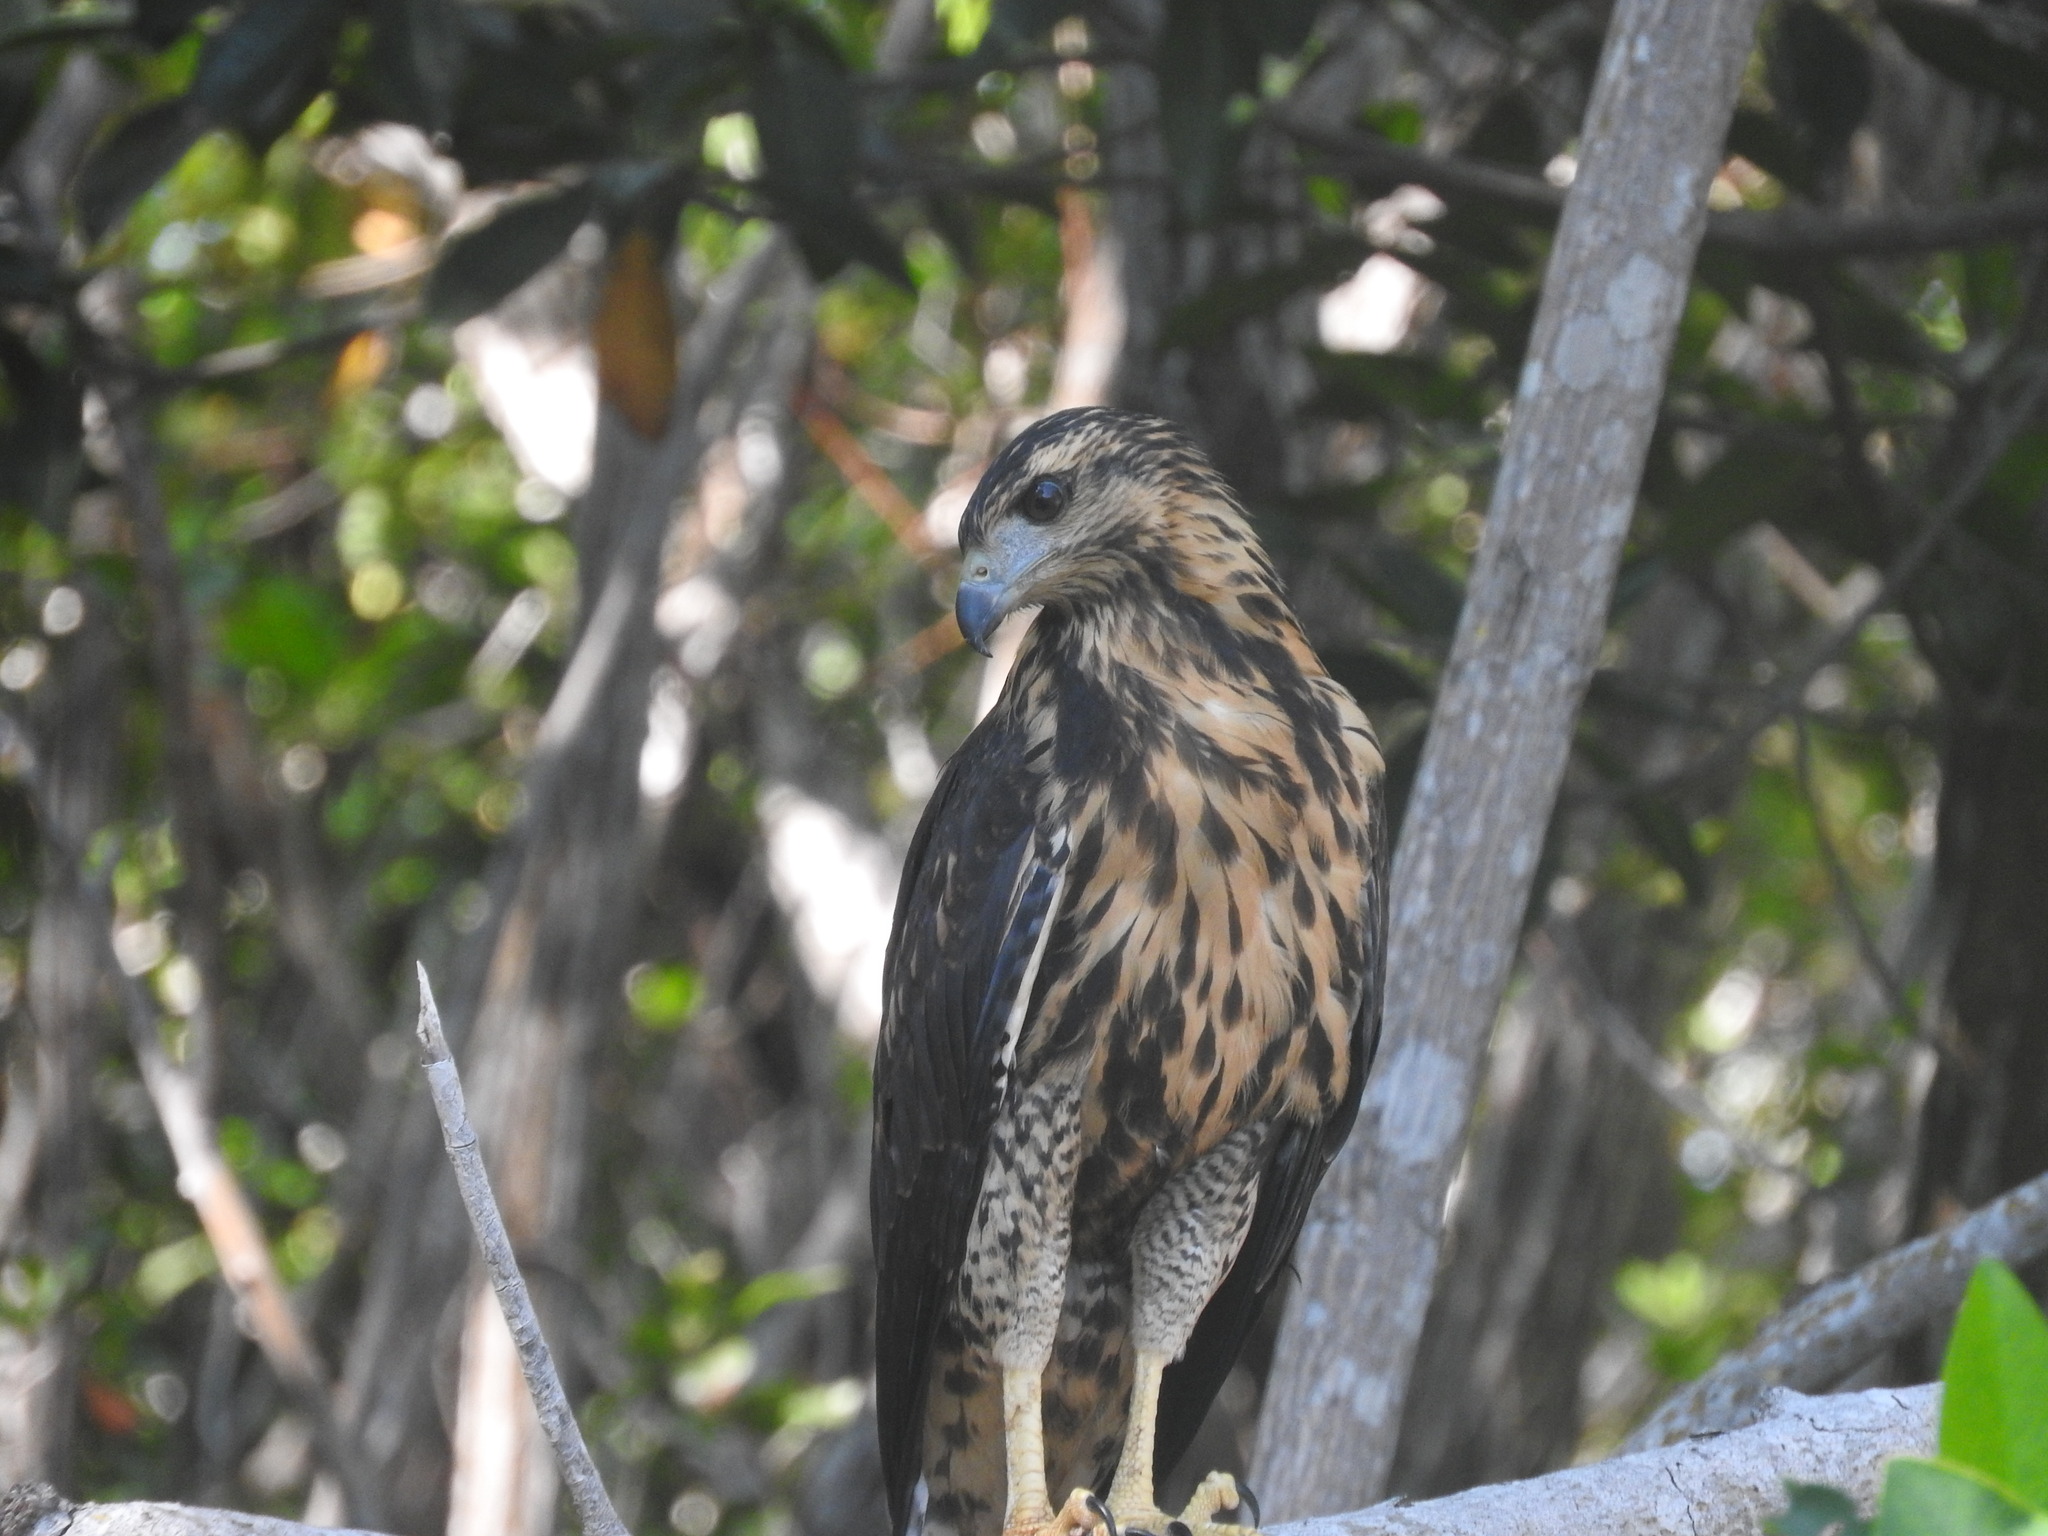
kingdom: Animalia
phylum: Chordata
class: Aves
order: Accipitriformes
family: Accipitridae
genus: Buteogallus
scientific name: Buteogallus anthracinus
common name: Common black hawk
